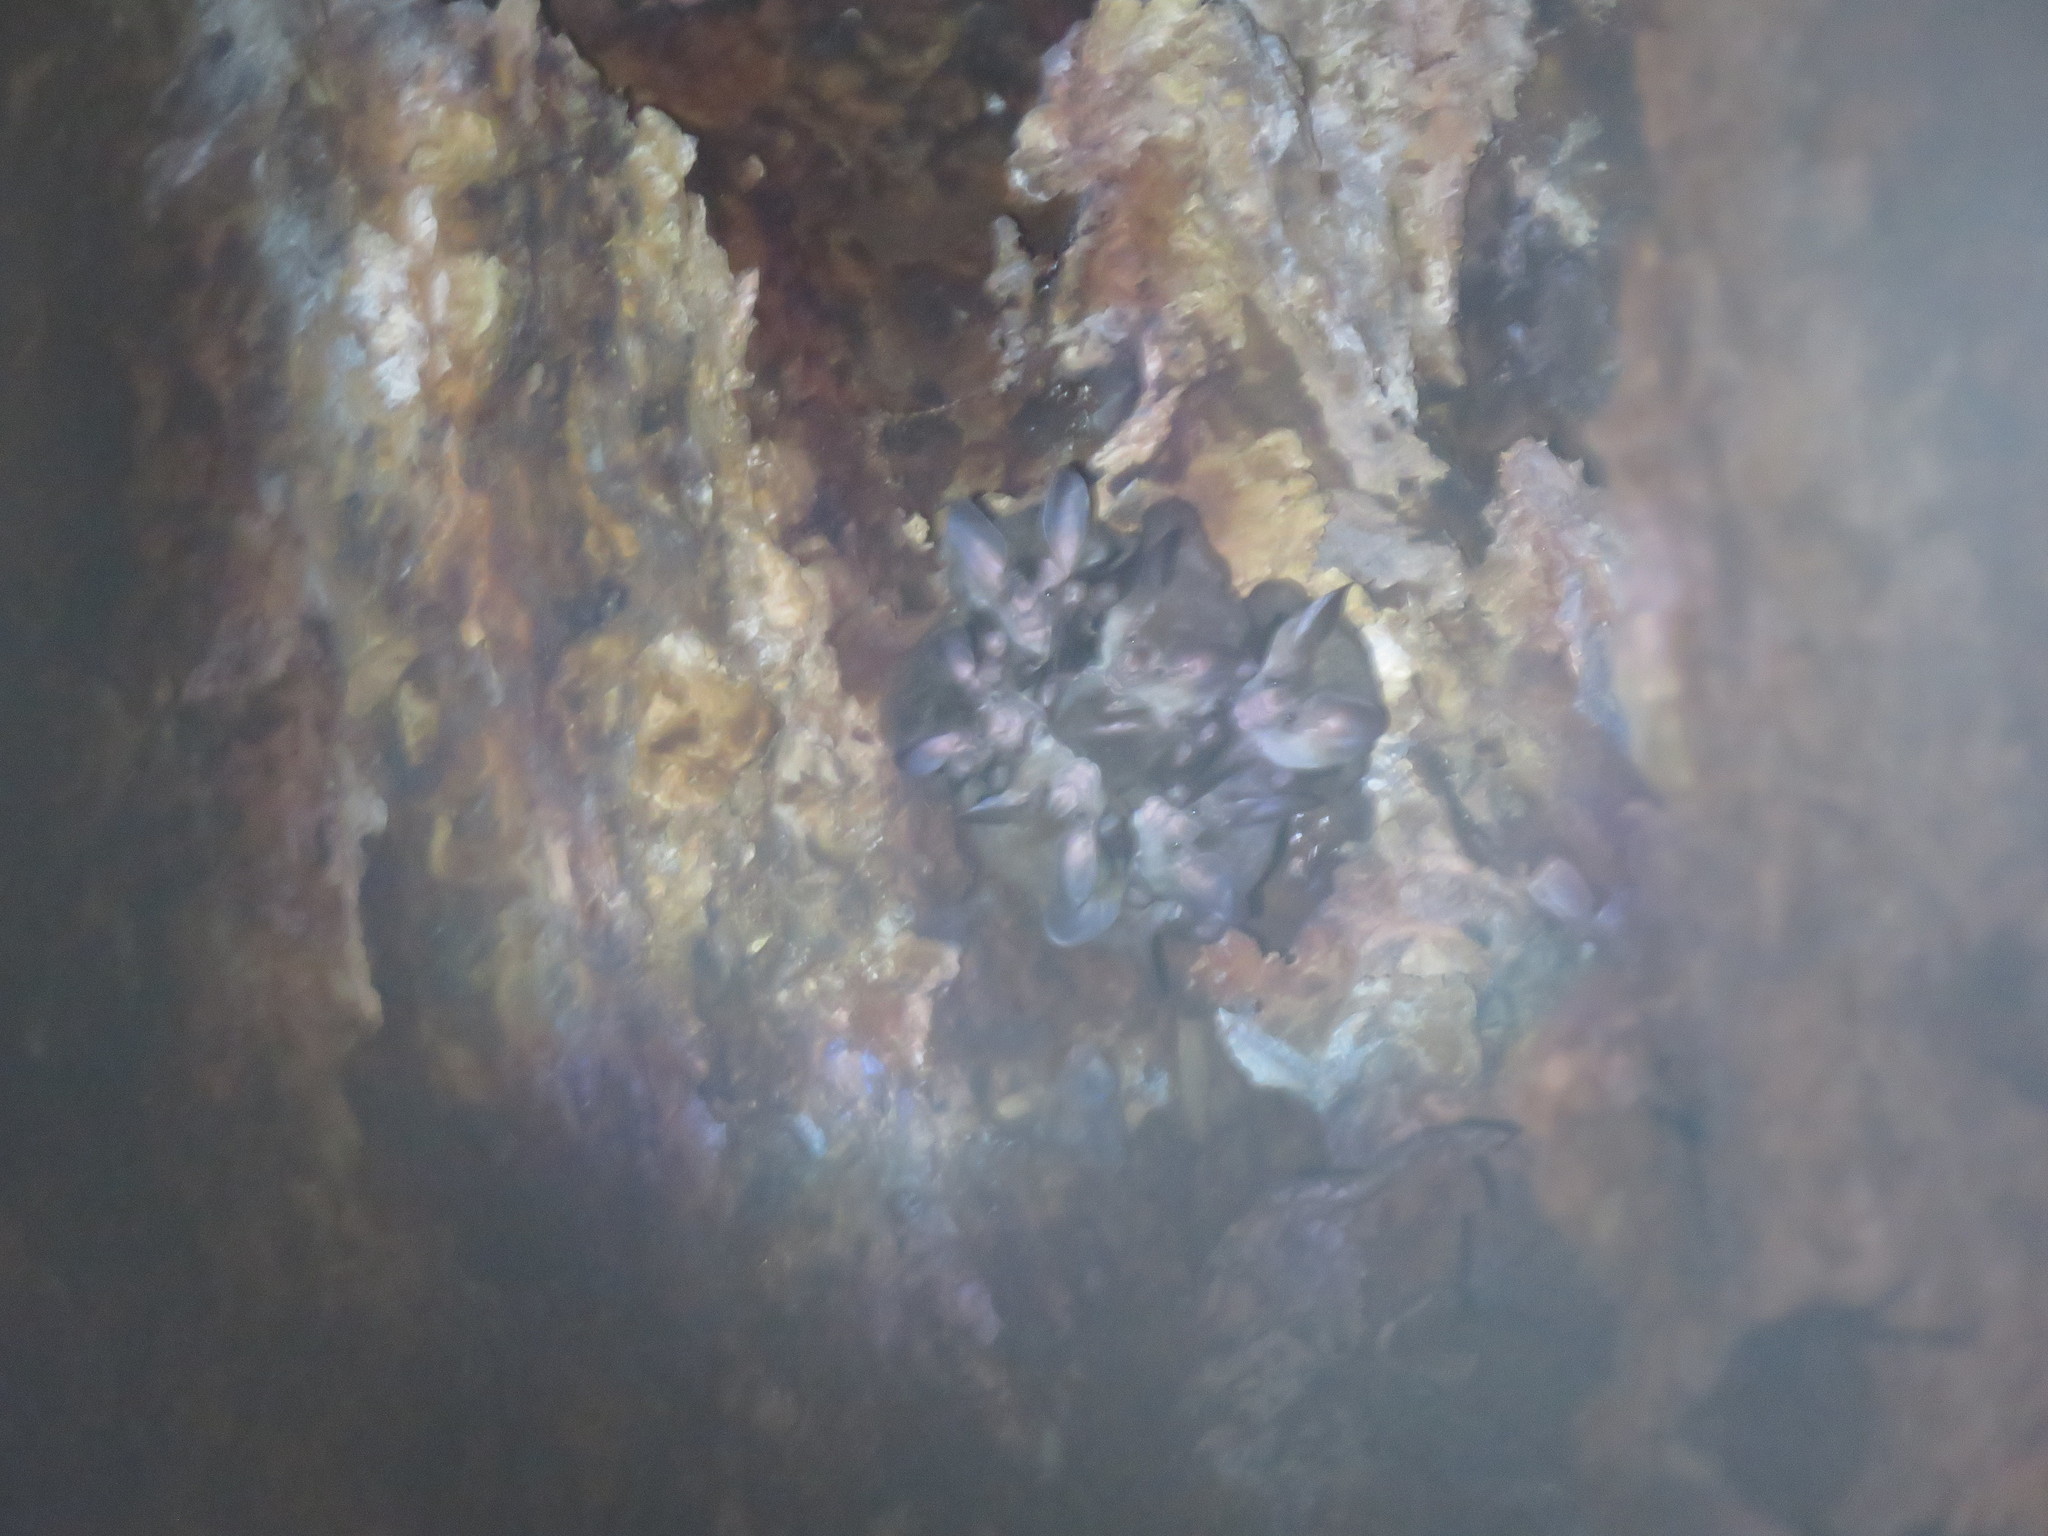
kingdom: Animalia
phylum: Chordata
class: Mammalia
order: Chiroptera
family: Phyllostomidae
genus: Chrotopterus
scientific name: Chrotopterus auritus
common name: Woolly false vampire bat
